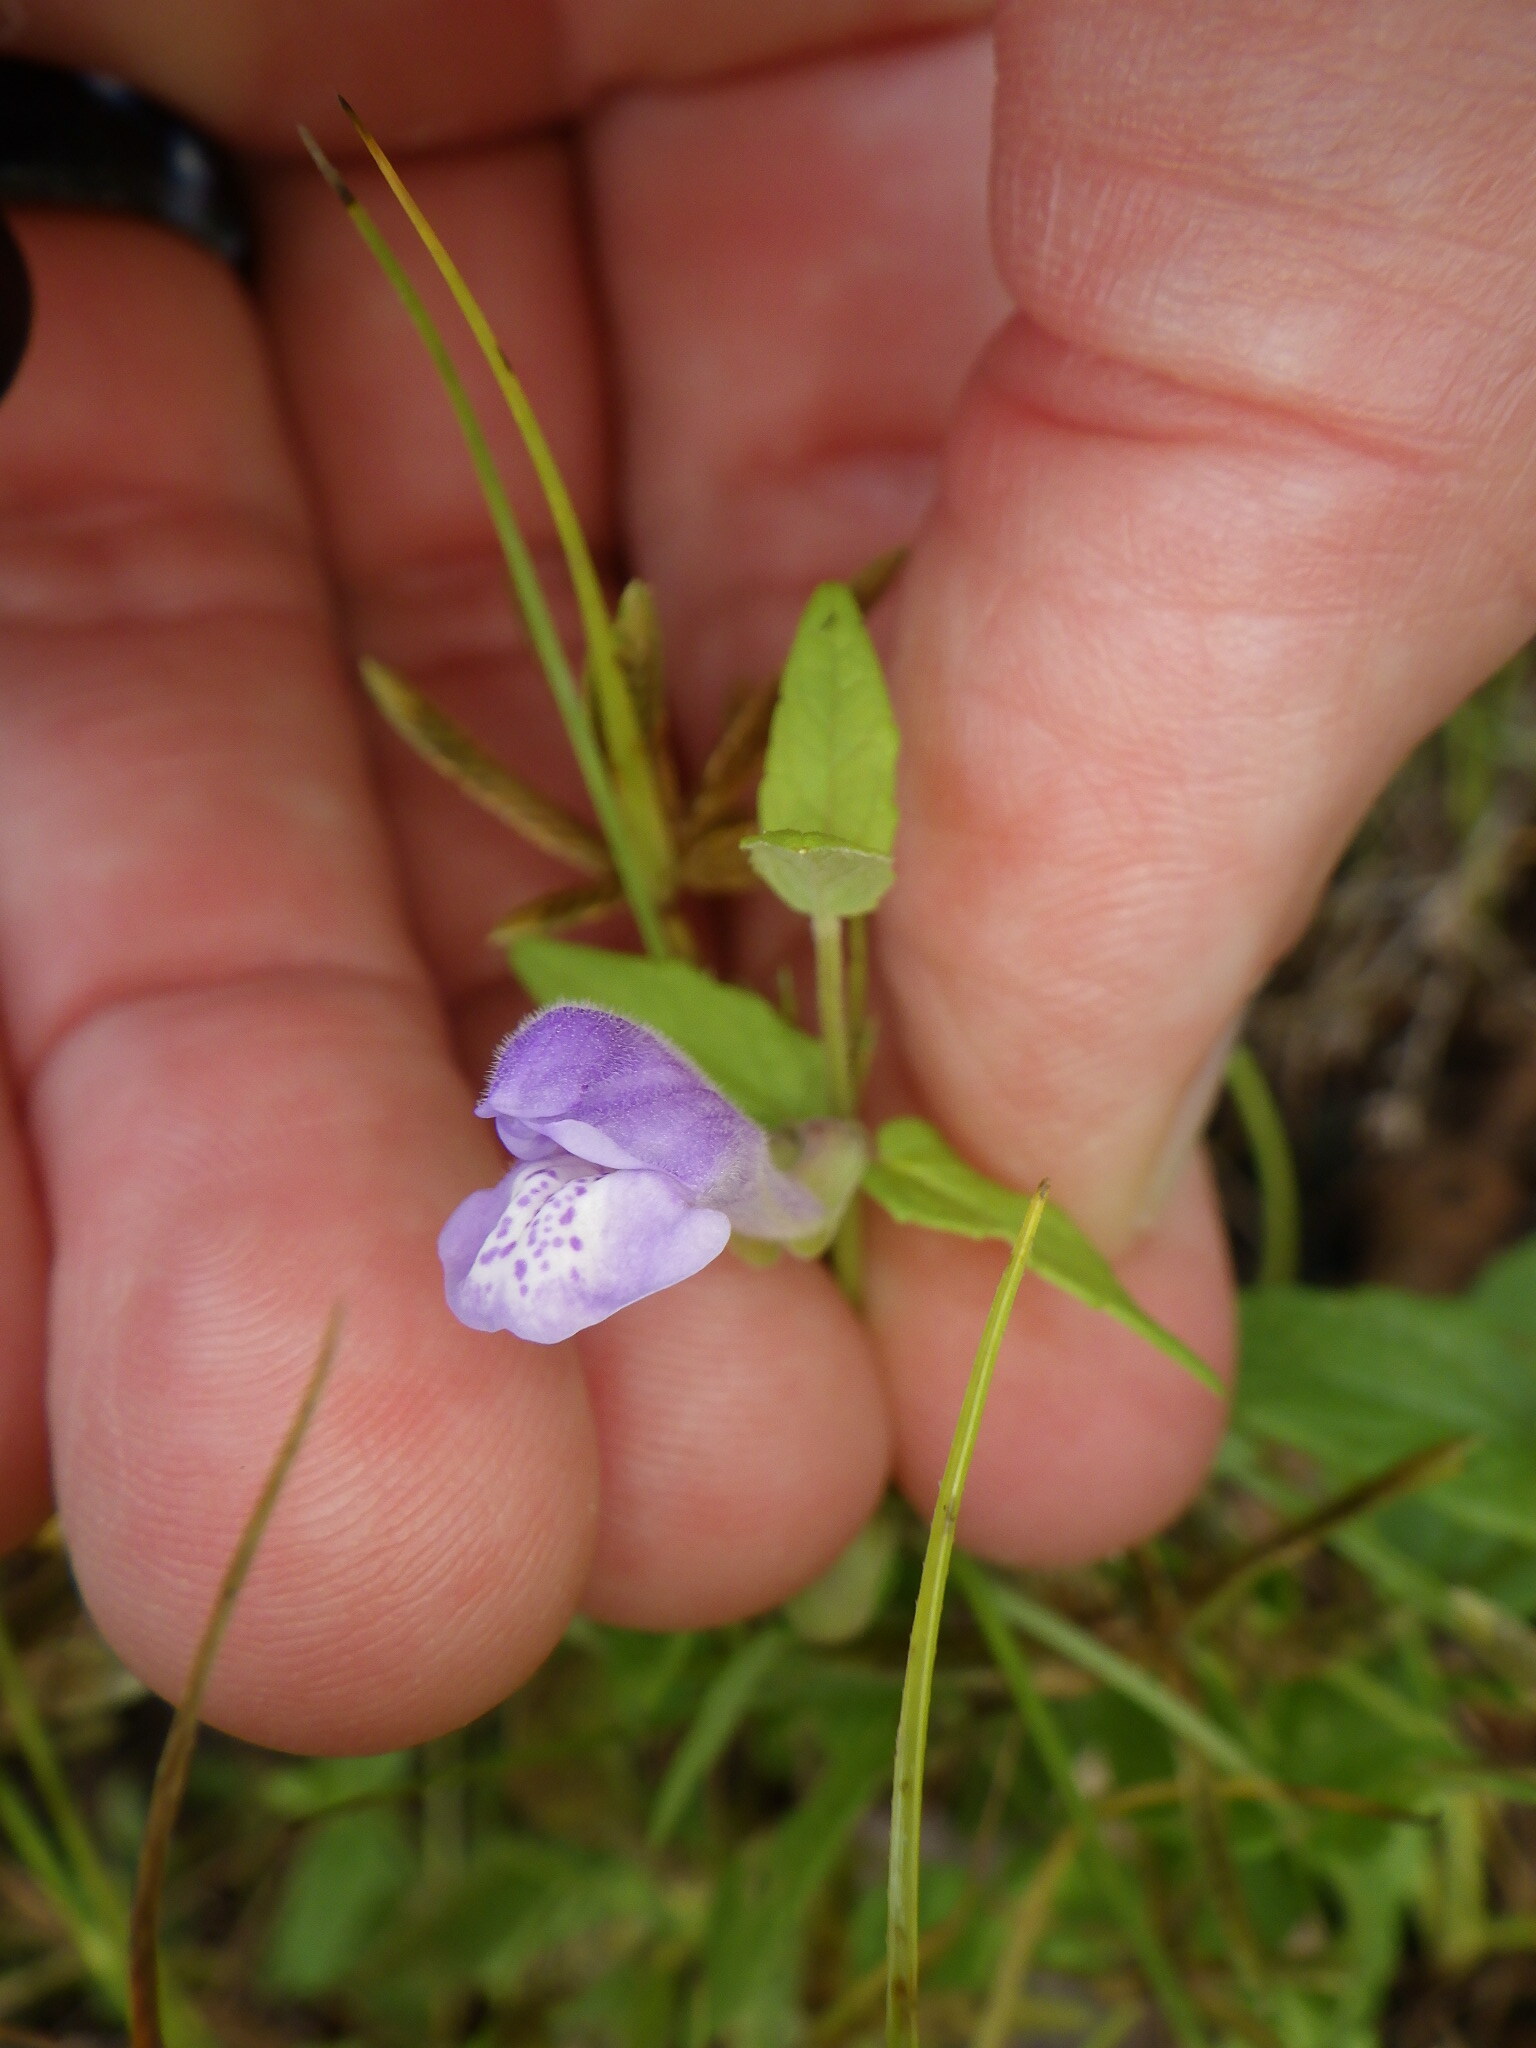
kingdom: Plantae
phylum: Tracheophyta
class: Magnoliopsida
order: Lamiales
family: Lamiaceae
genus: Scutellaria
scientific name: Scutellaria galericulata
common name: Skullcap
